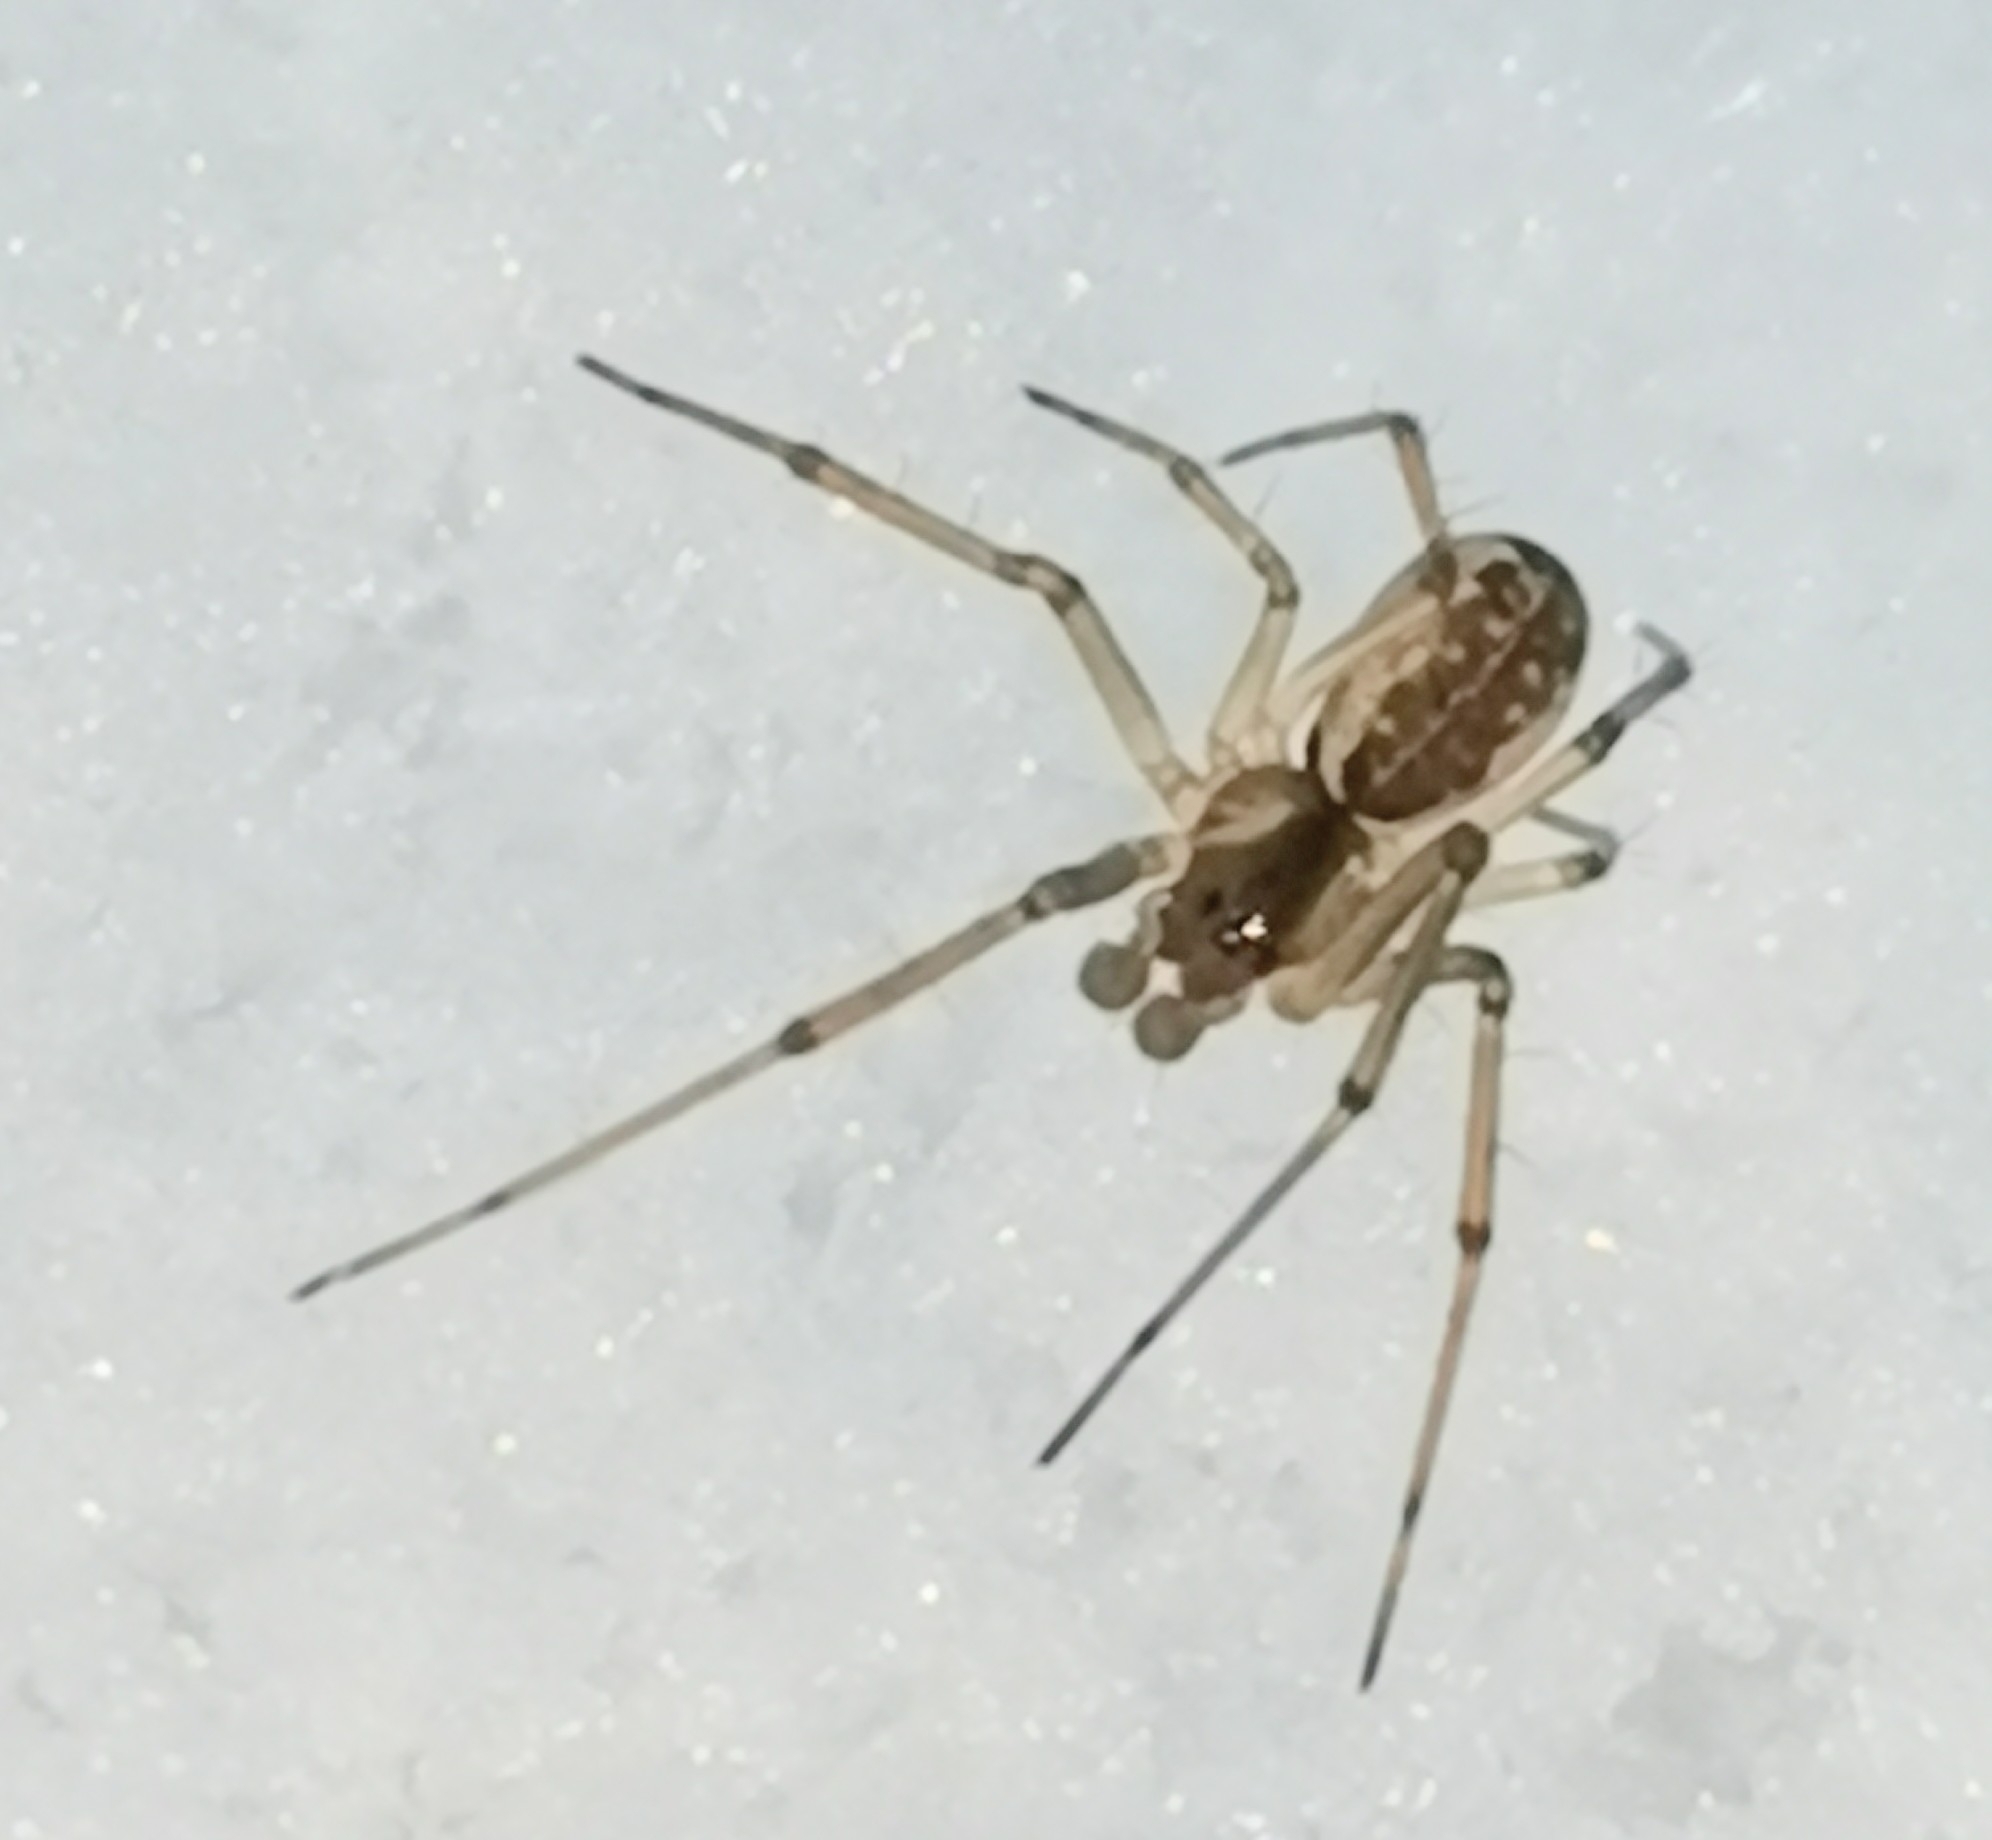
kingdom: Animalia
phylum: Arthropoda
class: Arachnida
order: Araneae
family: Linyphiidae
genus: Neriene
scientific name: Neriene peltata
